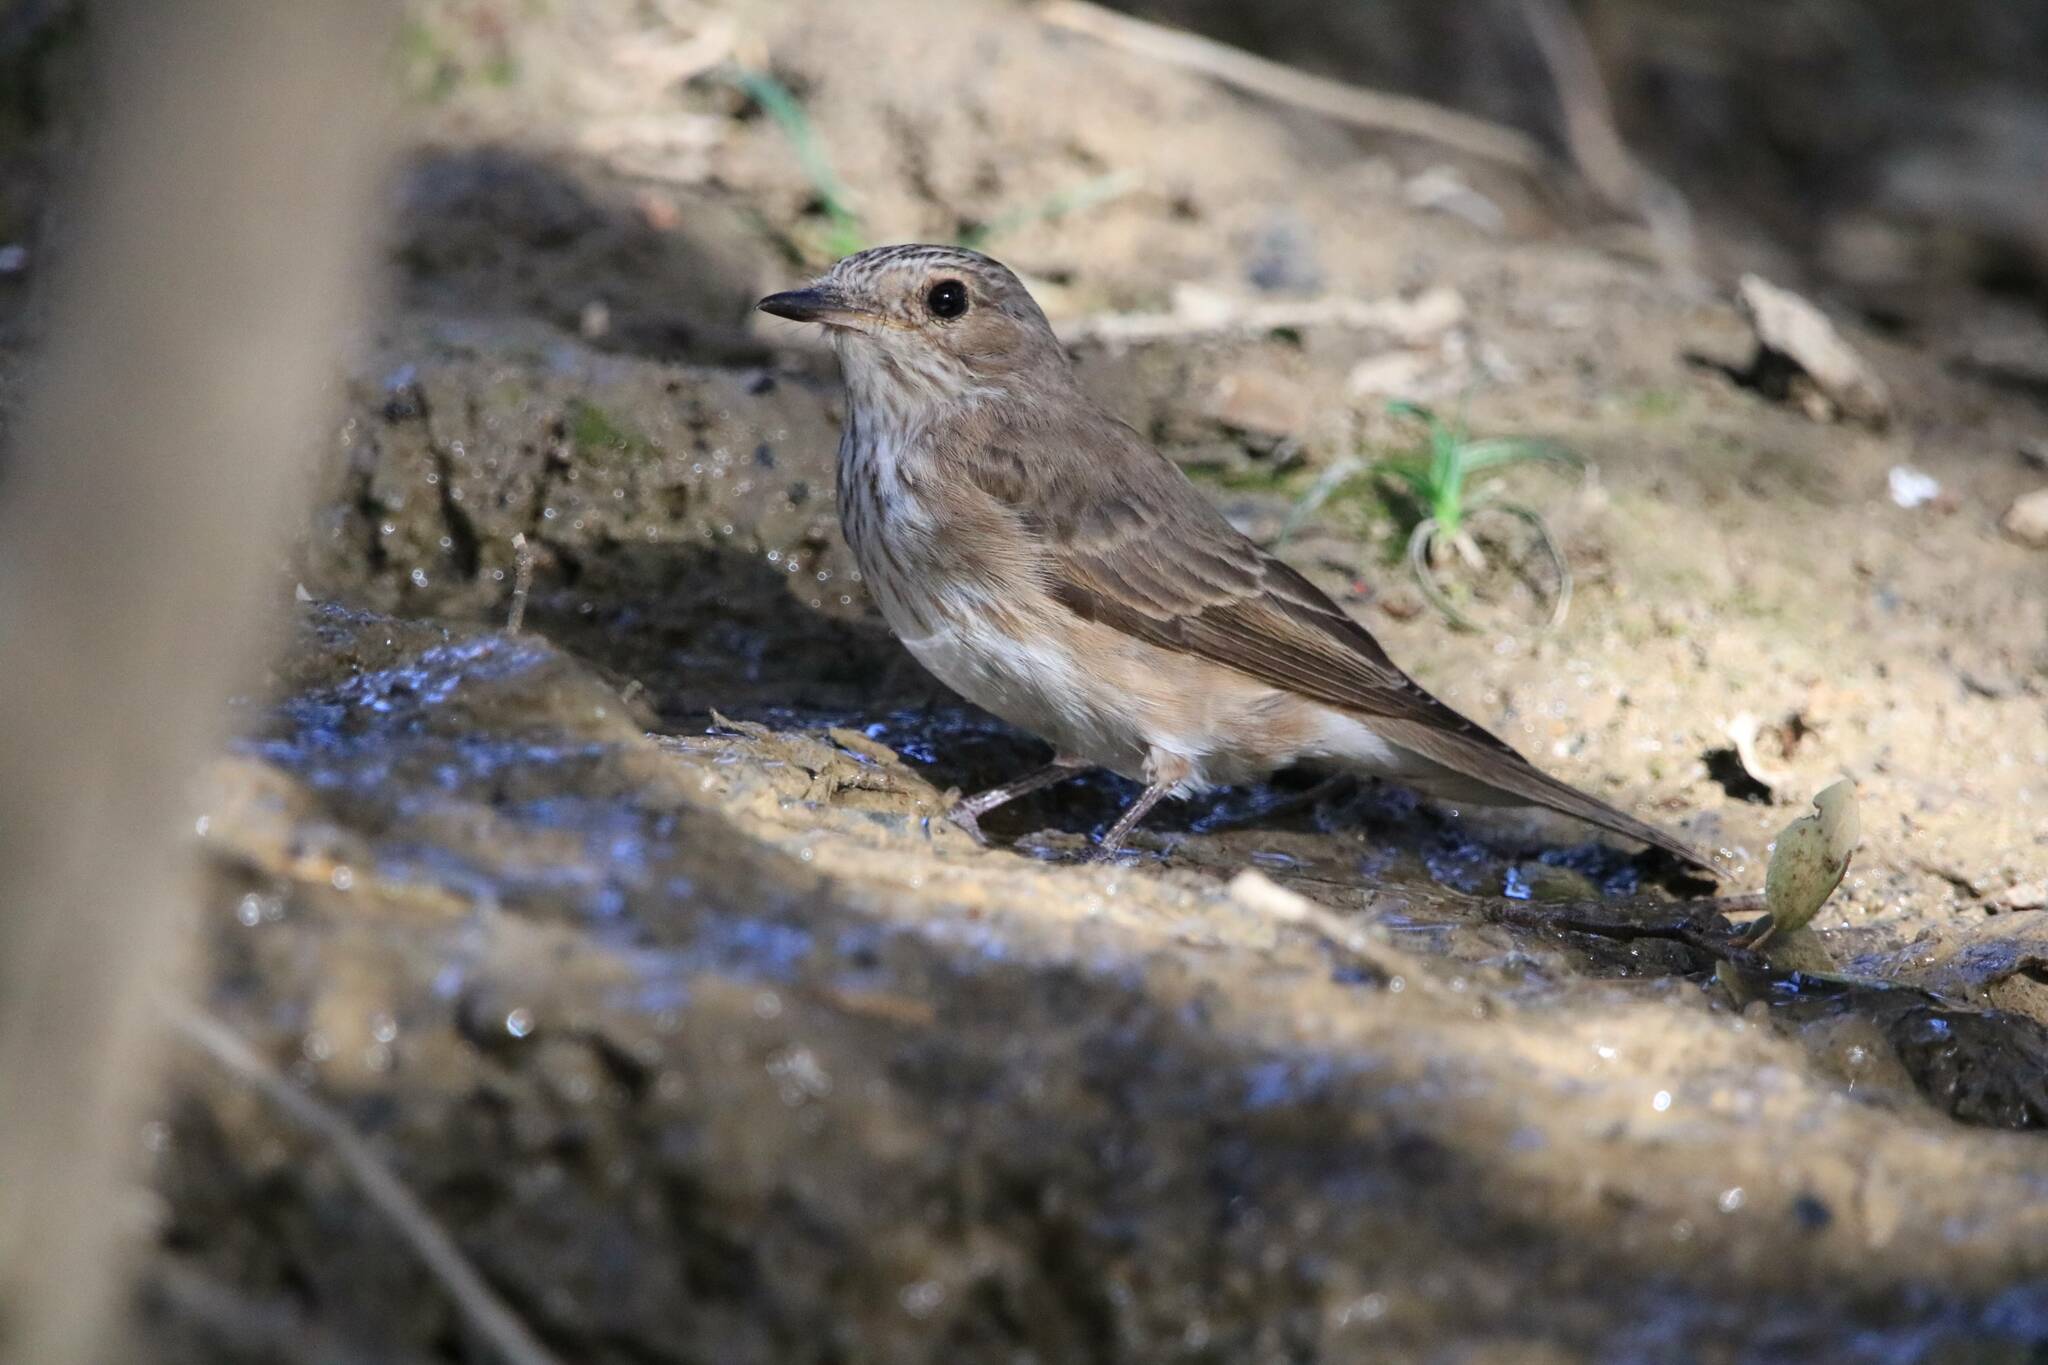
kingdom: Animalia
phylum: Chordata
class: Aves
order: Passeriformes
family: Muscicapidae
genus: Muscicapa
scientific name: Muscicapa striata
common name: Spotted flycatcher
